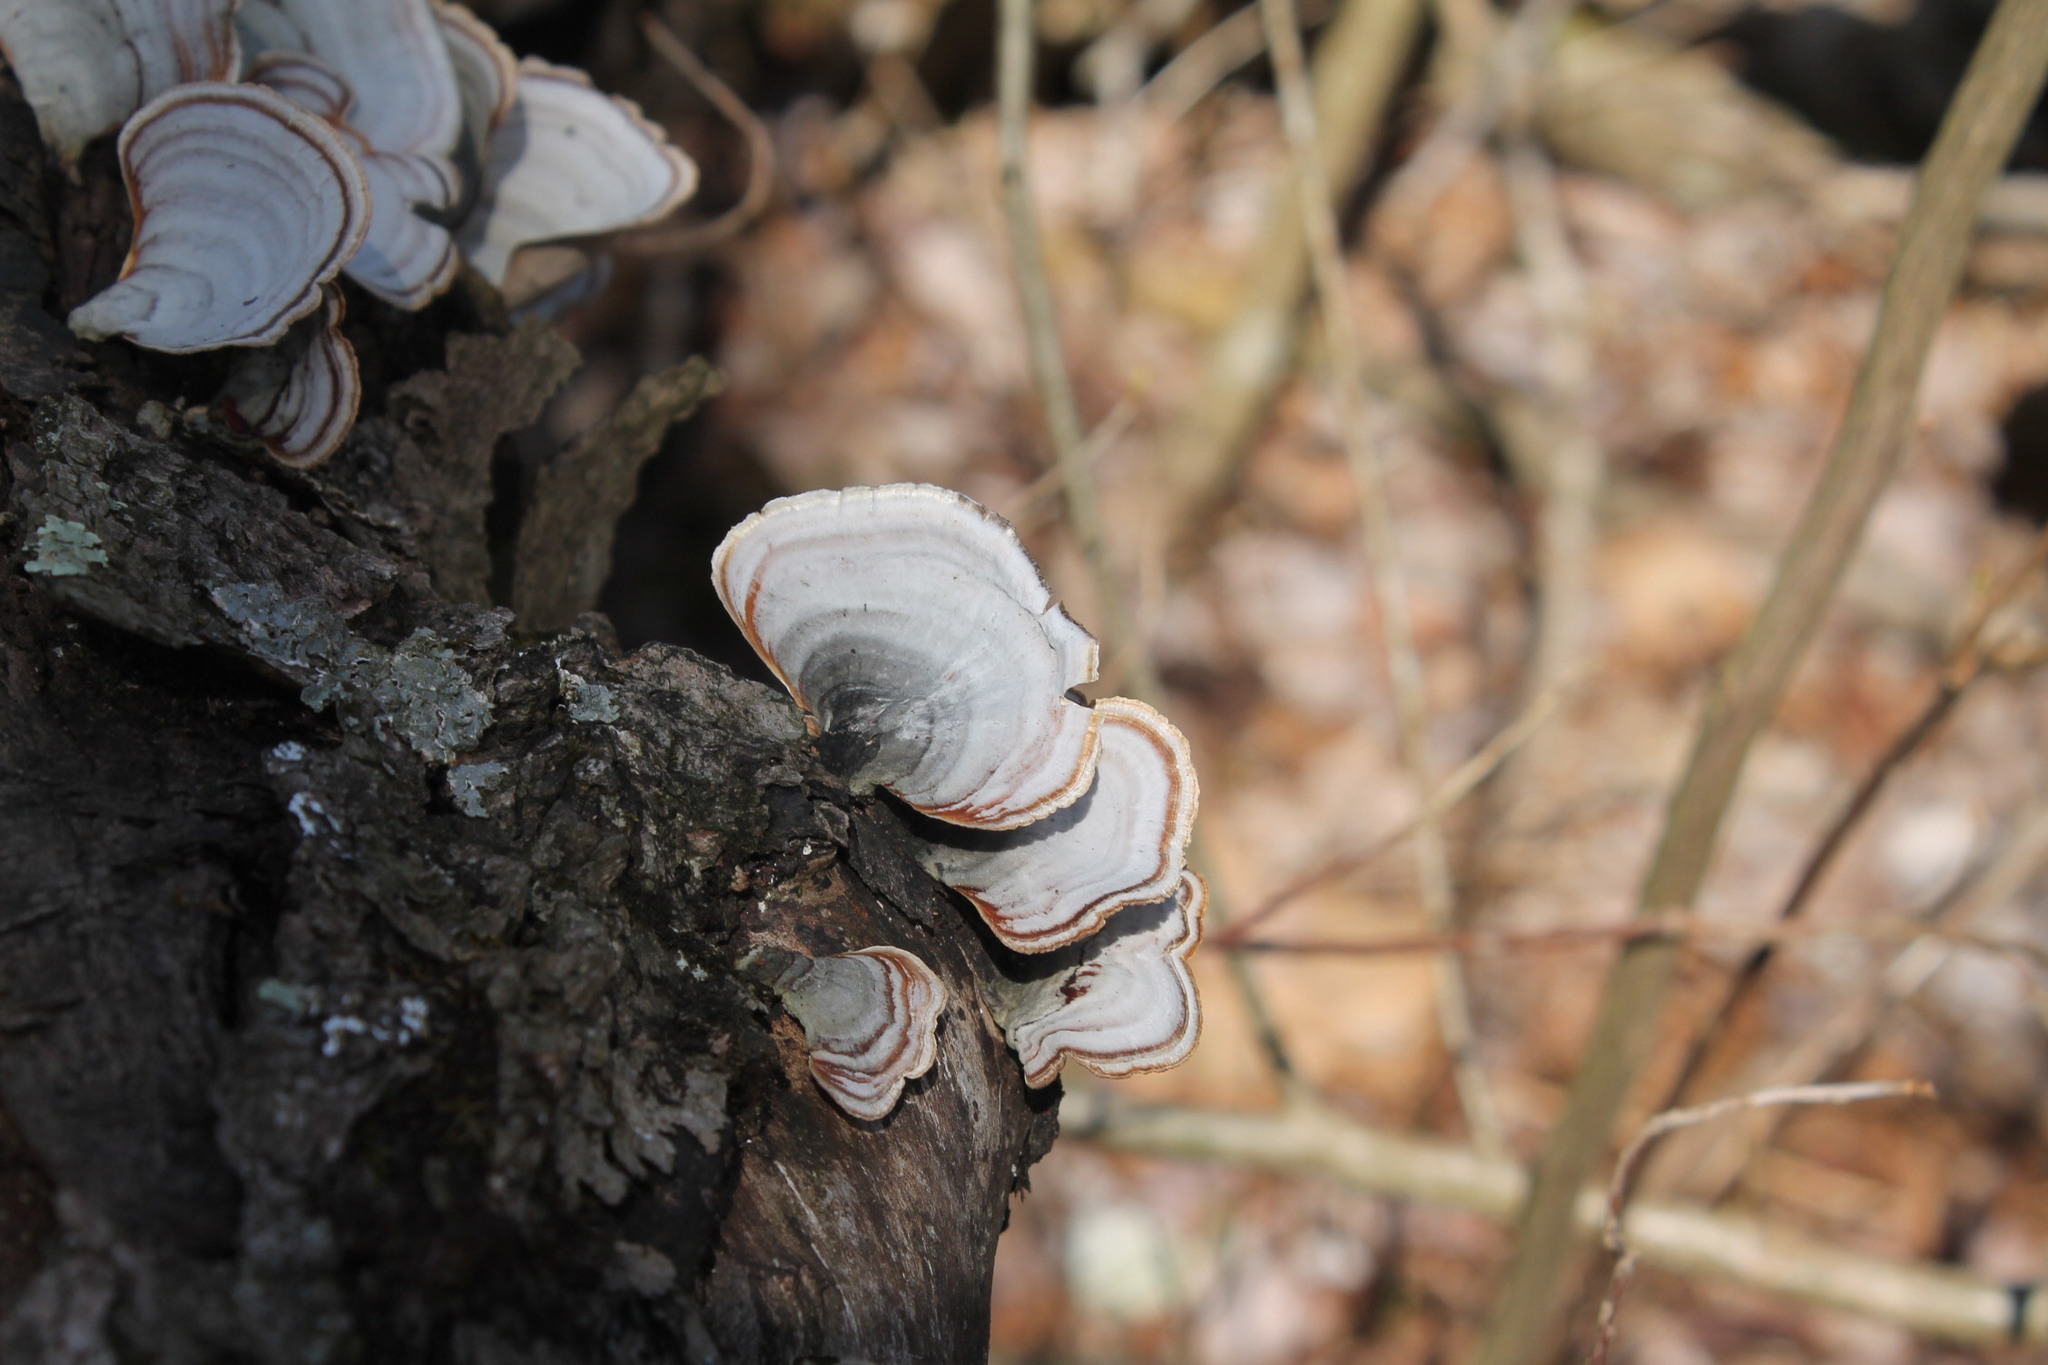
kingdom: Fungi
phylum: Basidiomycota
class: Agaricomycetes
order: Russulales
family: Stereaceae
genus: Stereum
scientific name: Stereum lobatum
